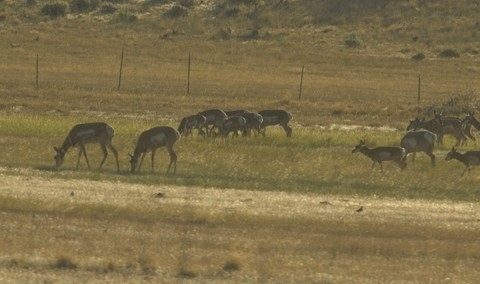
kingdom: Animalia
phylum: Chordata
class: Mammalia
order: Artiodactyla
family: Antilocapridae
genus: Antilocapra
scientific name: Antilocapra americana
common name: Pronghorn
